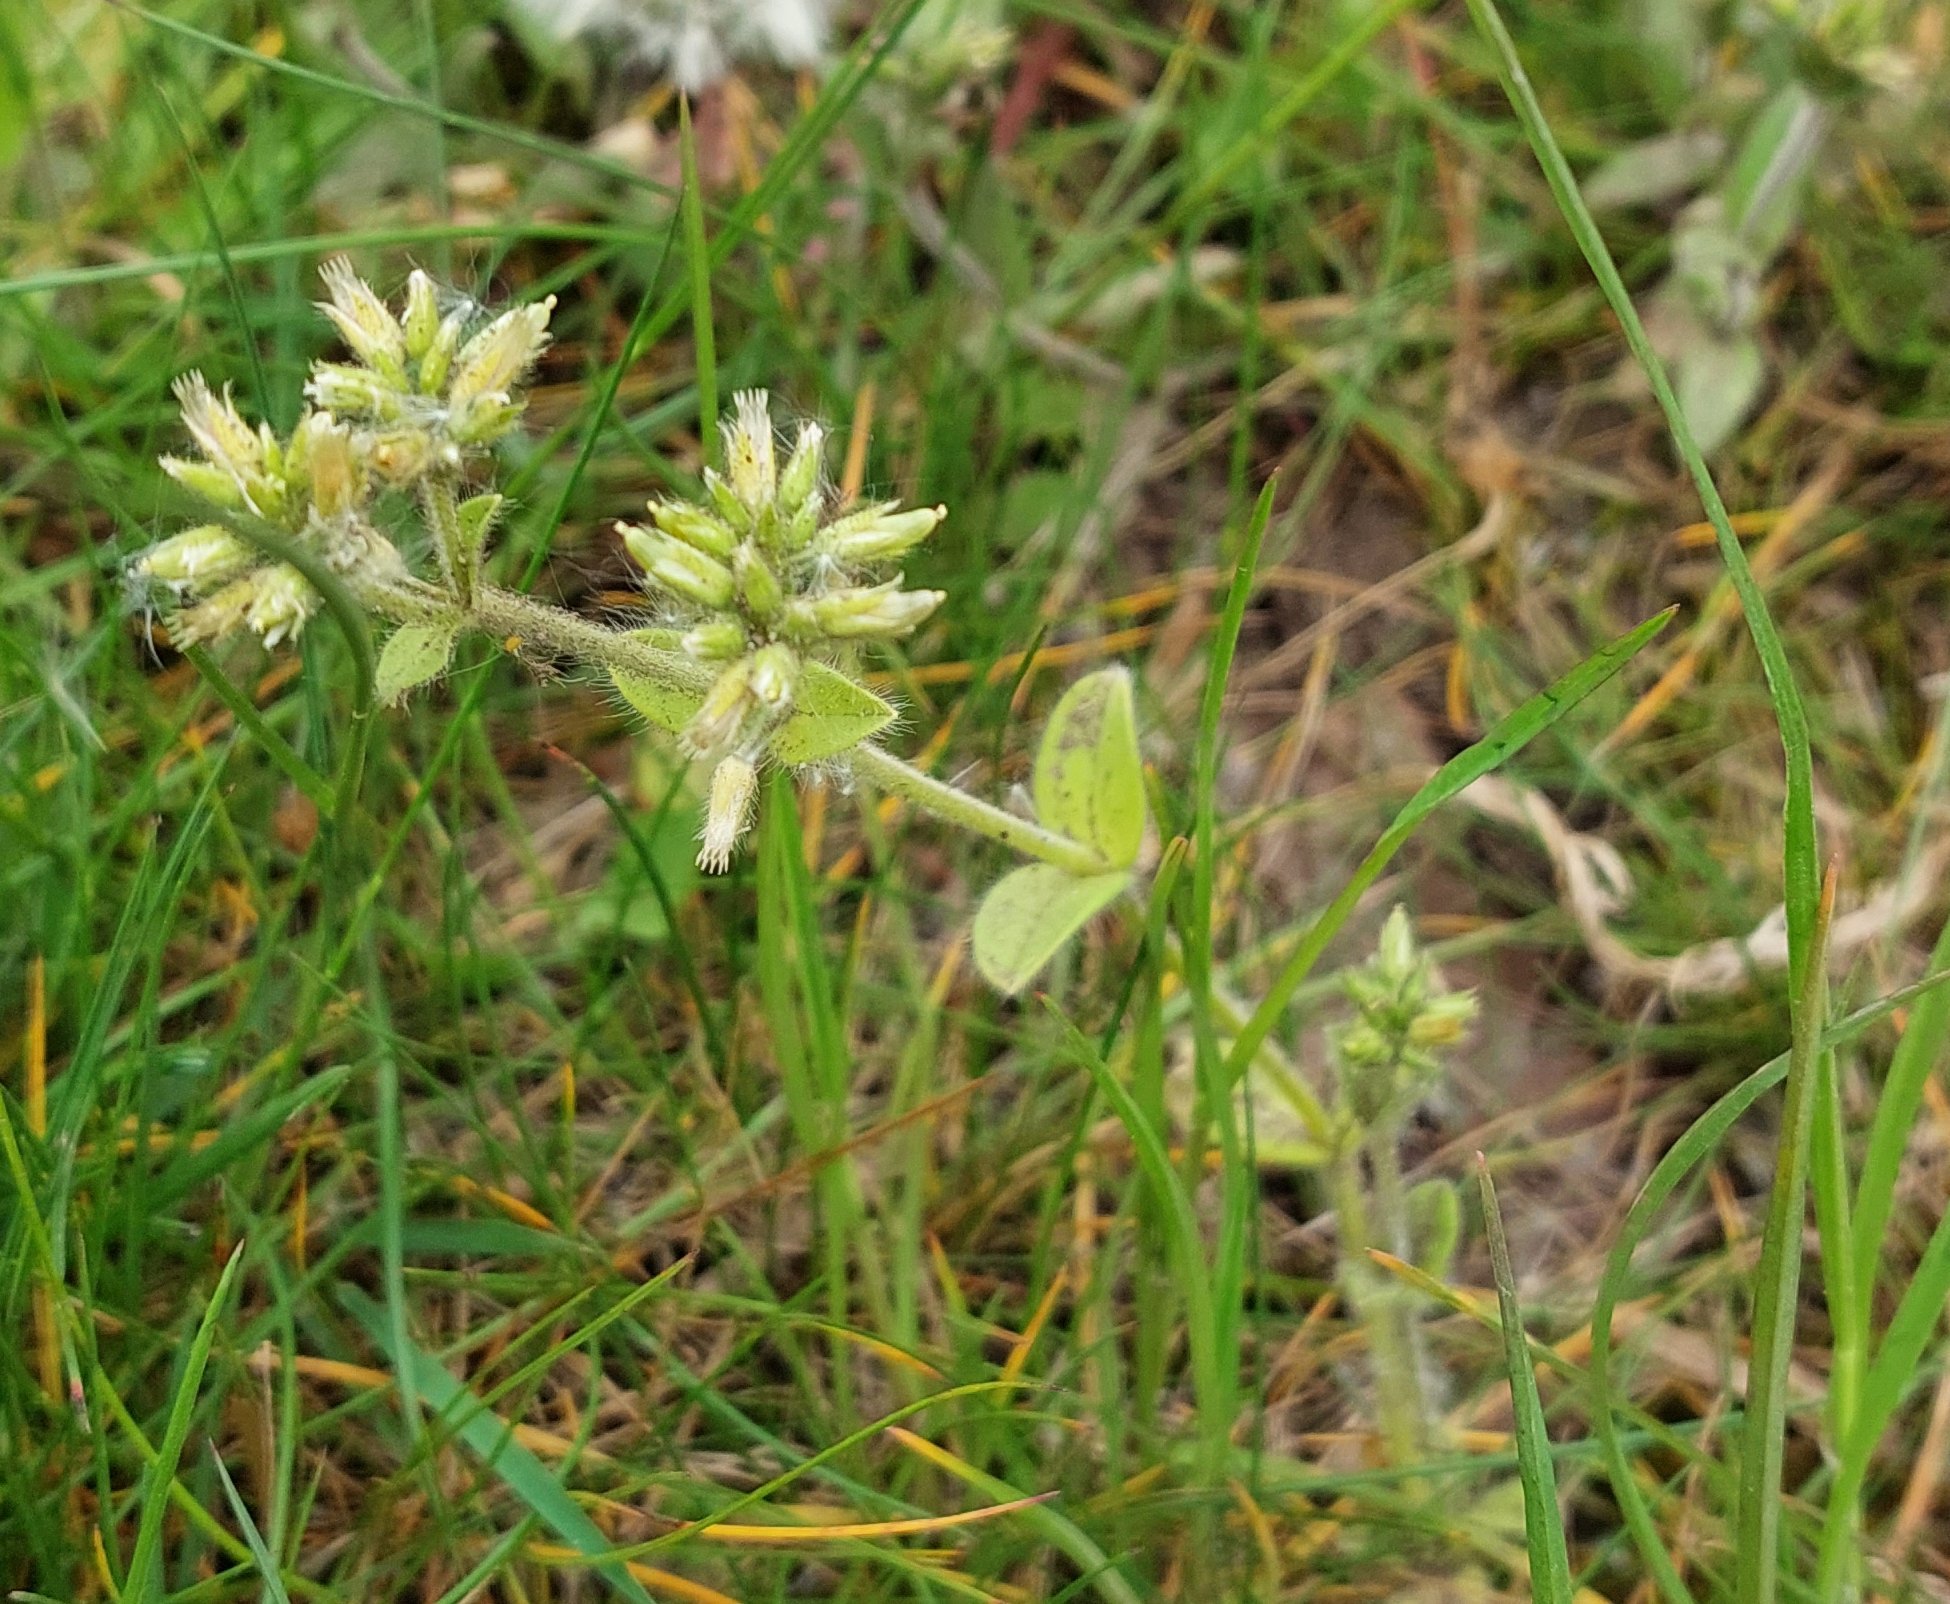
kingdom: Plantae
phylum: Tracheophyta
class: Magnoliopsida
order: Caryophyllales
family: Caryophyllaceae
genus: Cerastium
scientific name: Cerastium glomeratum
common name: Sticky chickweed
